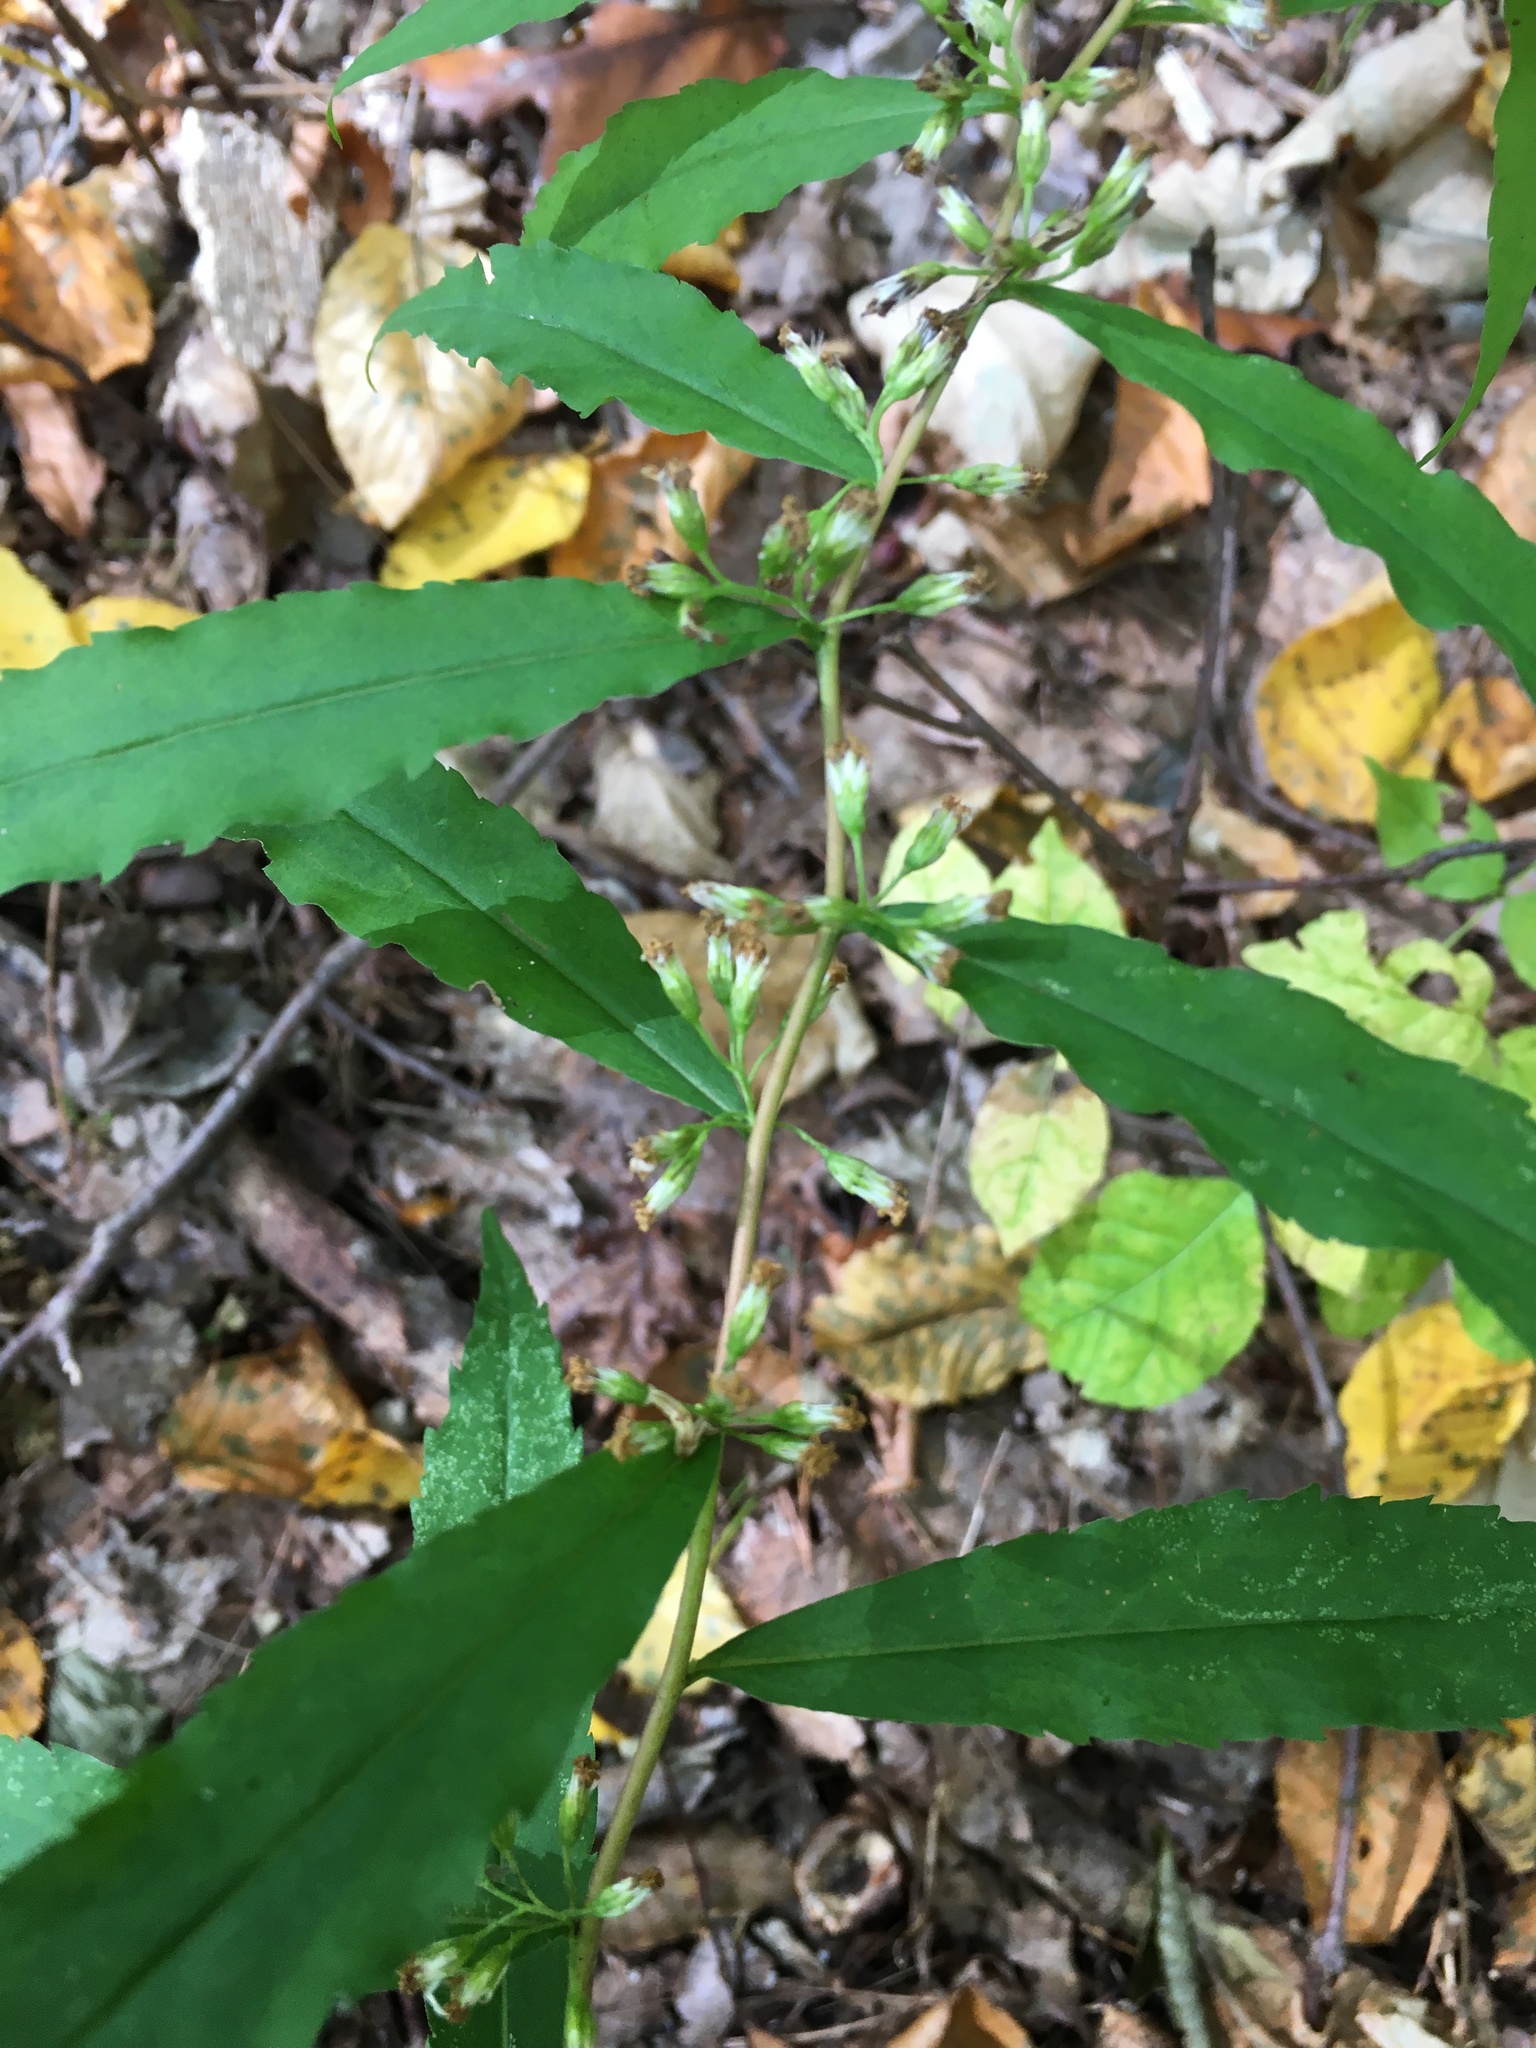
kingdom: Plantae
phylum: Tracheophyta
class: Magnoliopsida
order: Asterales
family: Asteraceae
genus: Solidago
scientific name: Solidago caesia
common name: Woodland goldenrod
